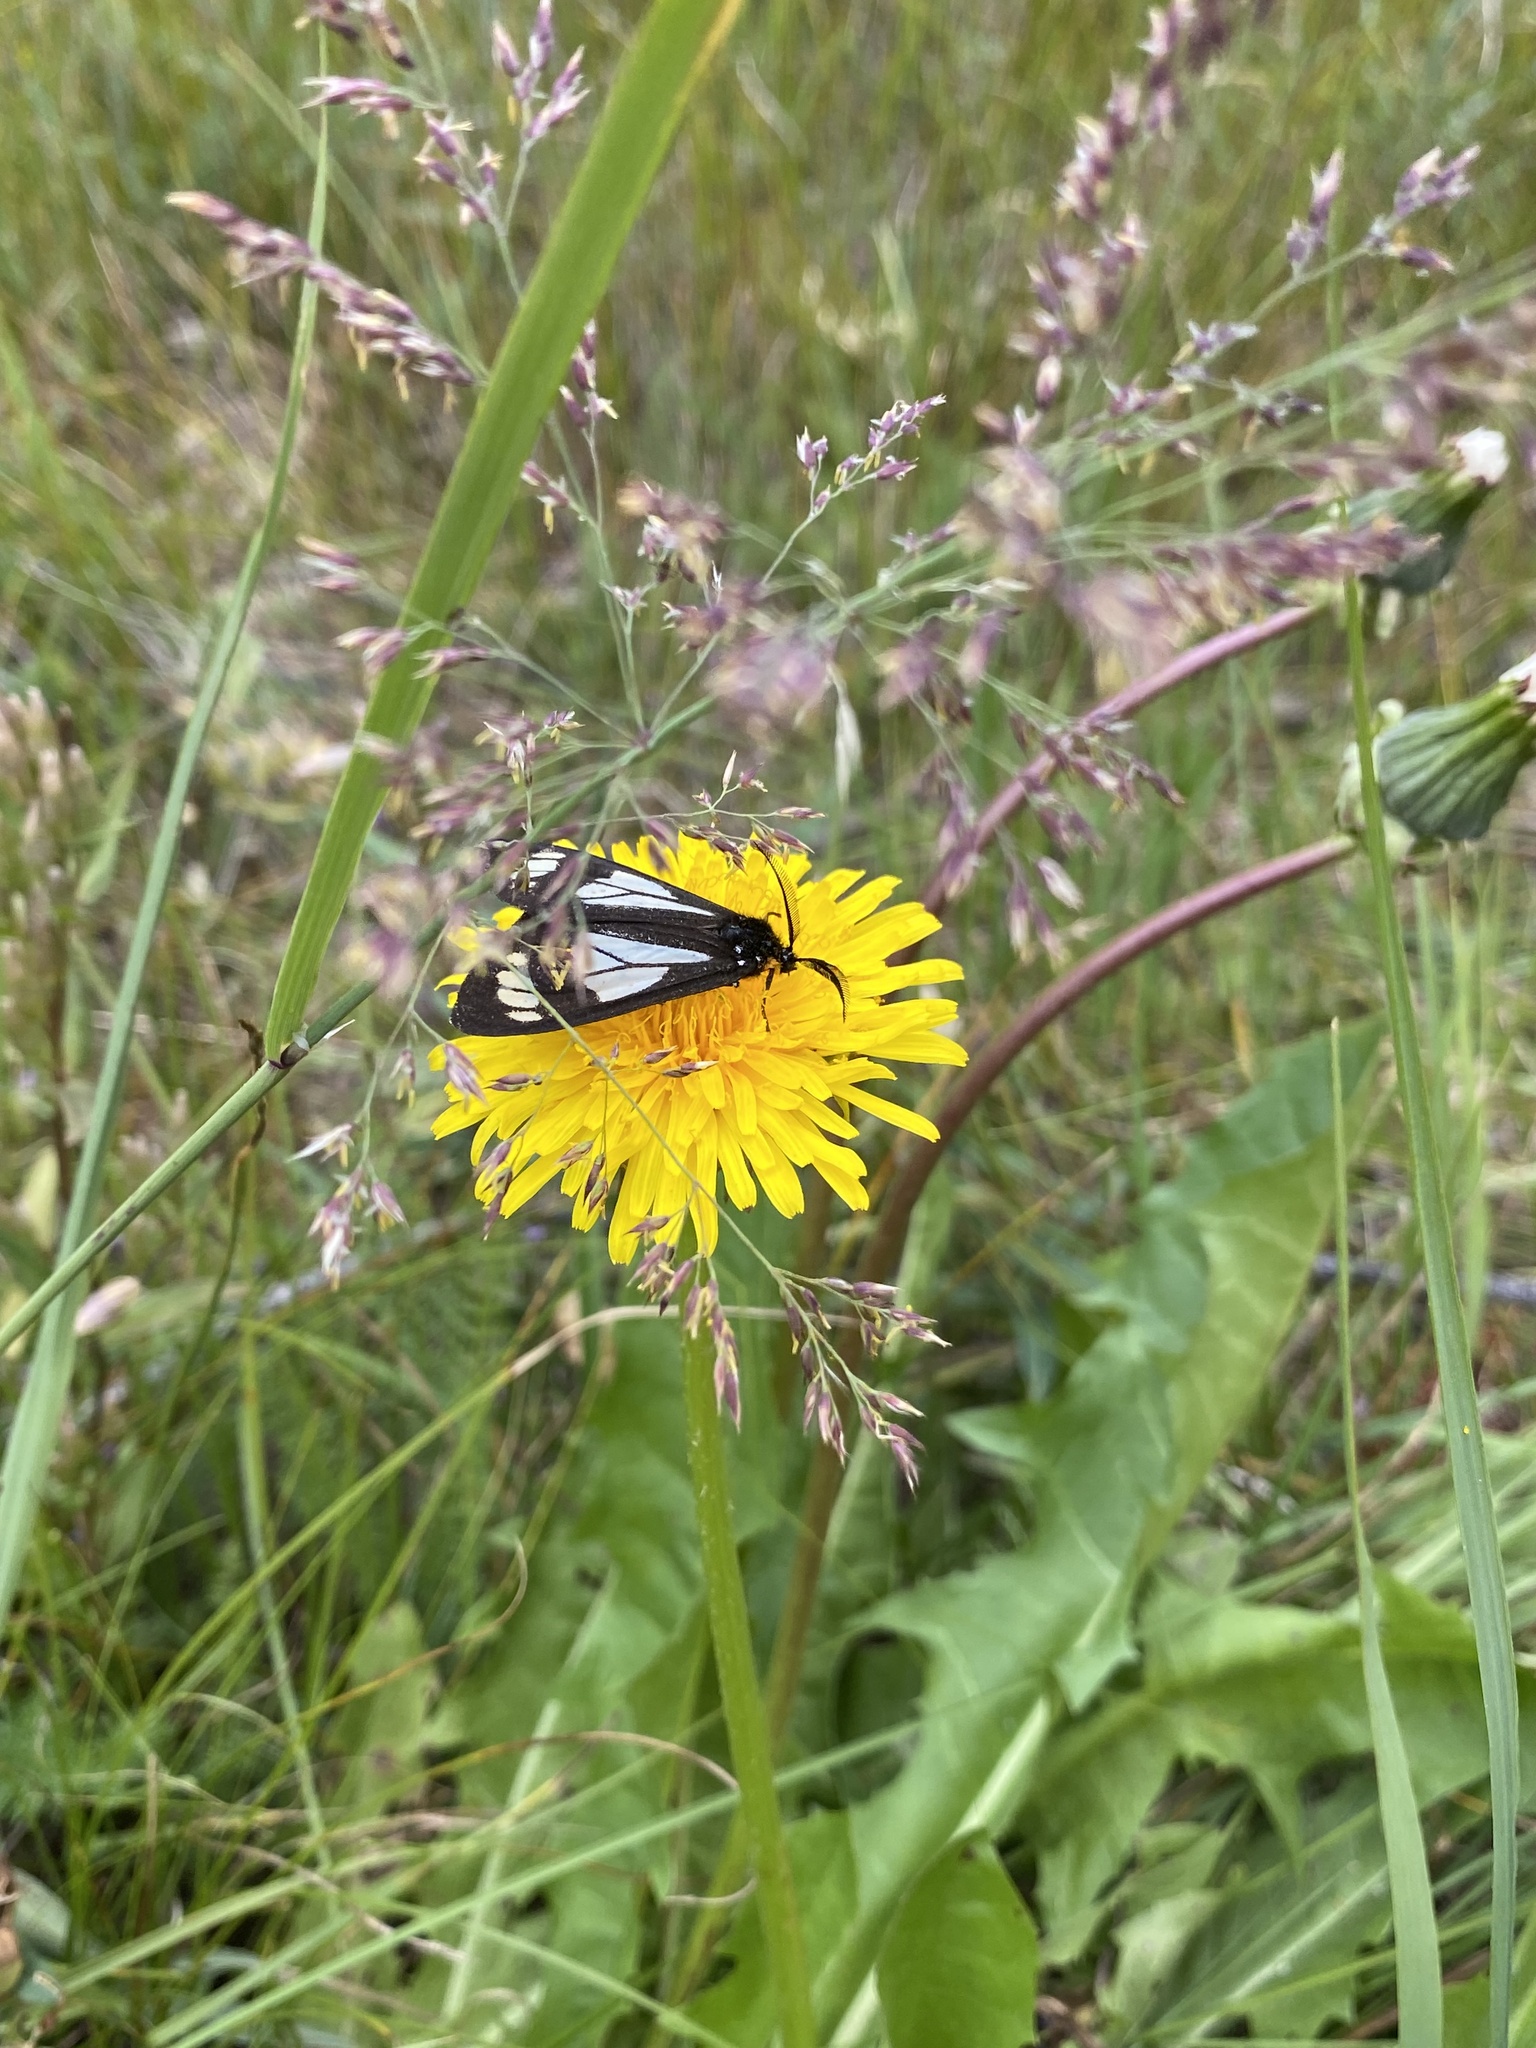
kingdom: Animalia
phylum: Arthropoda
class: Insecta
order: Lepidoptera
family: Erebidae
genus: Gnophaela
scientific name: Gnophaela vermiculata
